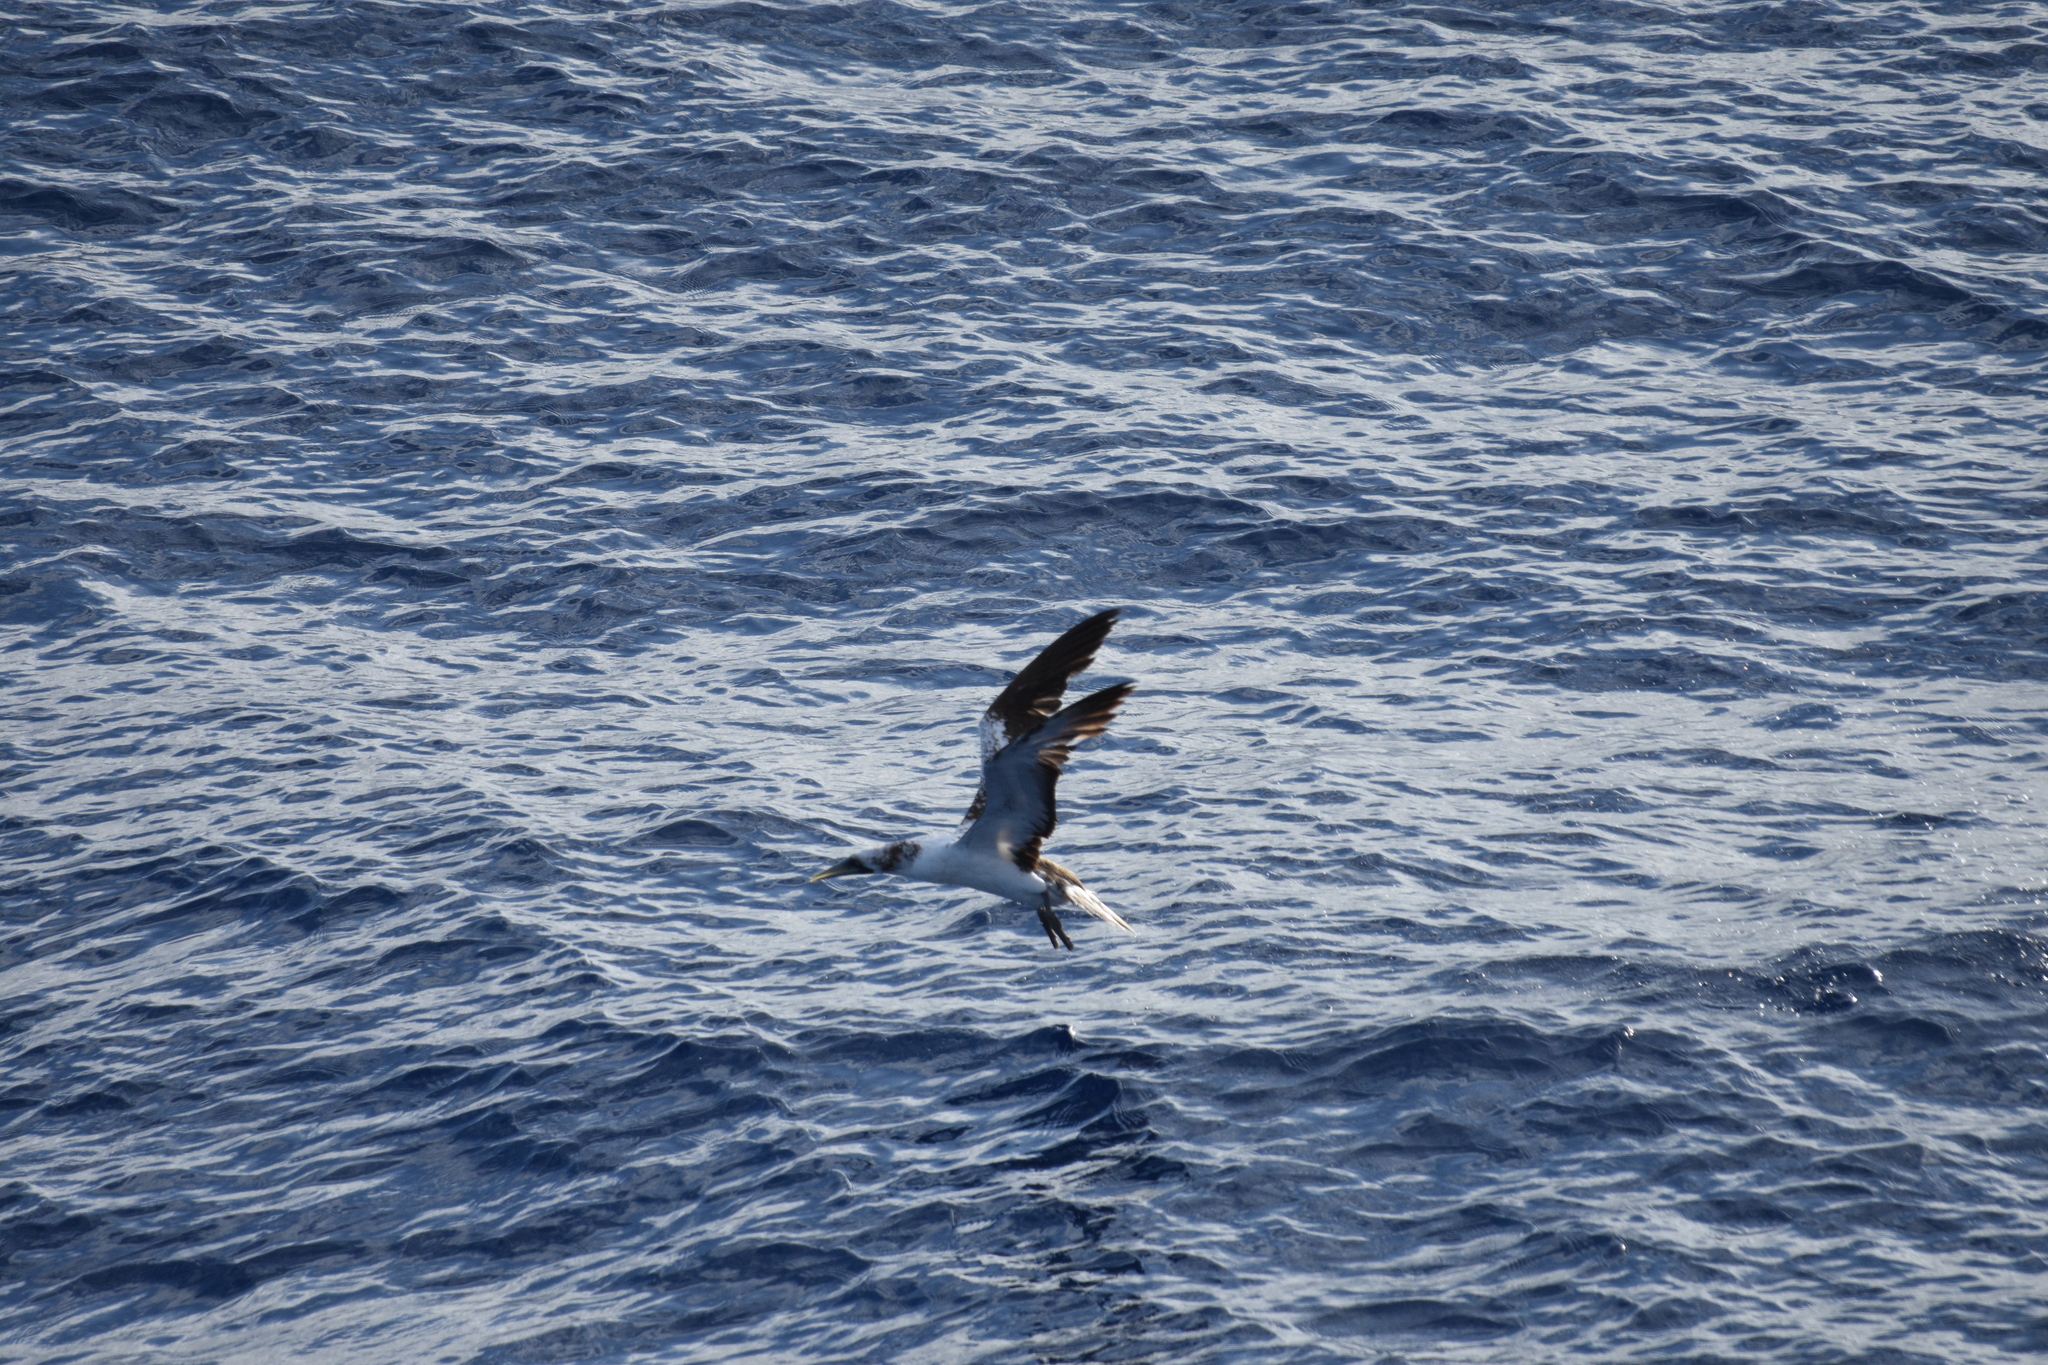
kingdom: Animalia
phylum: Chordata
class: Aves
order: Suliformes
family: Sulidae
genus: Sula
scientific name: Sula dactylatra
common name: Masked booby
